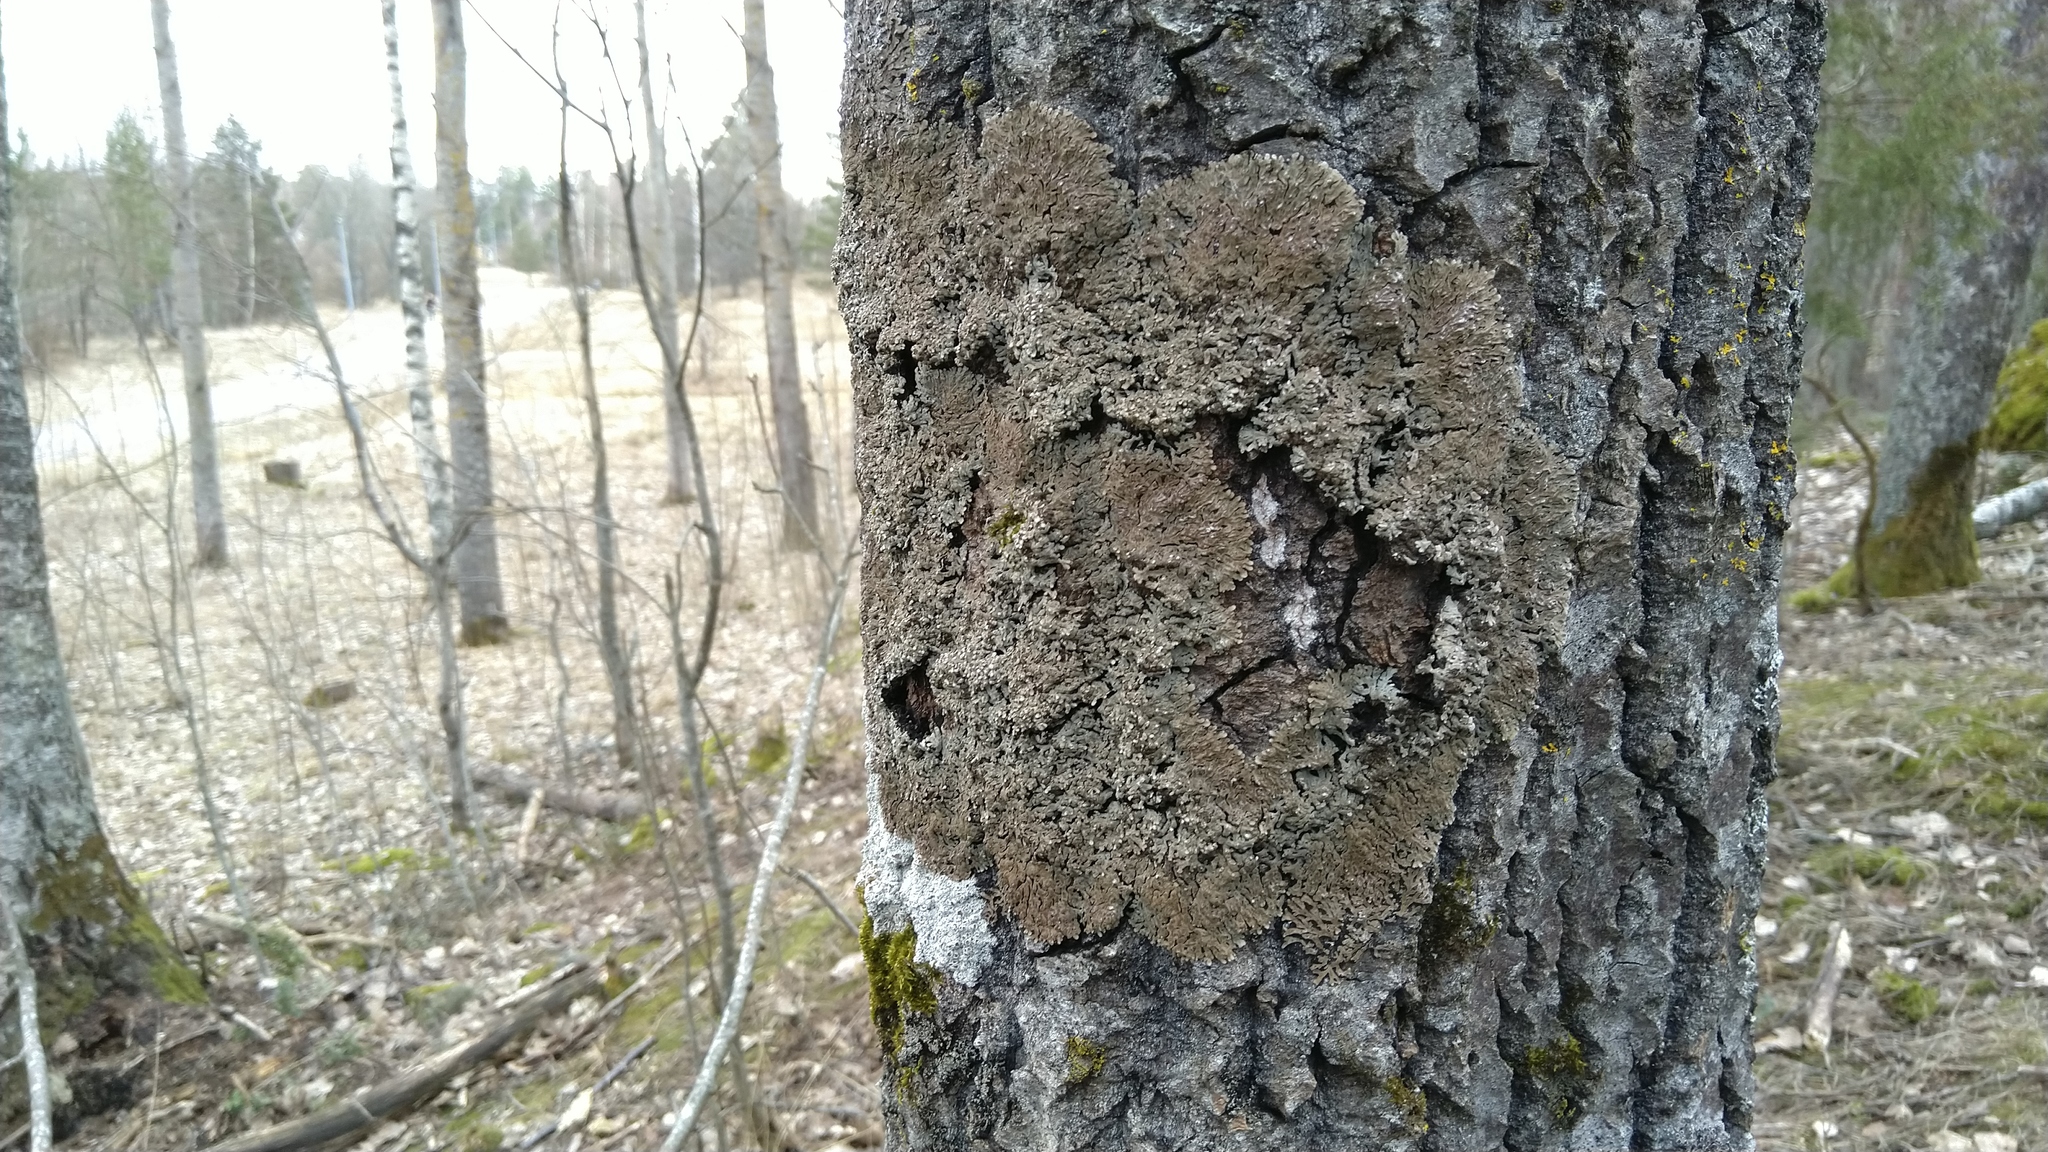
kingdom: Fungi
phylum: Ascomycota
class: Lecanoromycetes
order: Caliciales
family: Physciaceae
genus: Physconia
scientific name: Physconia distorta
